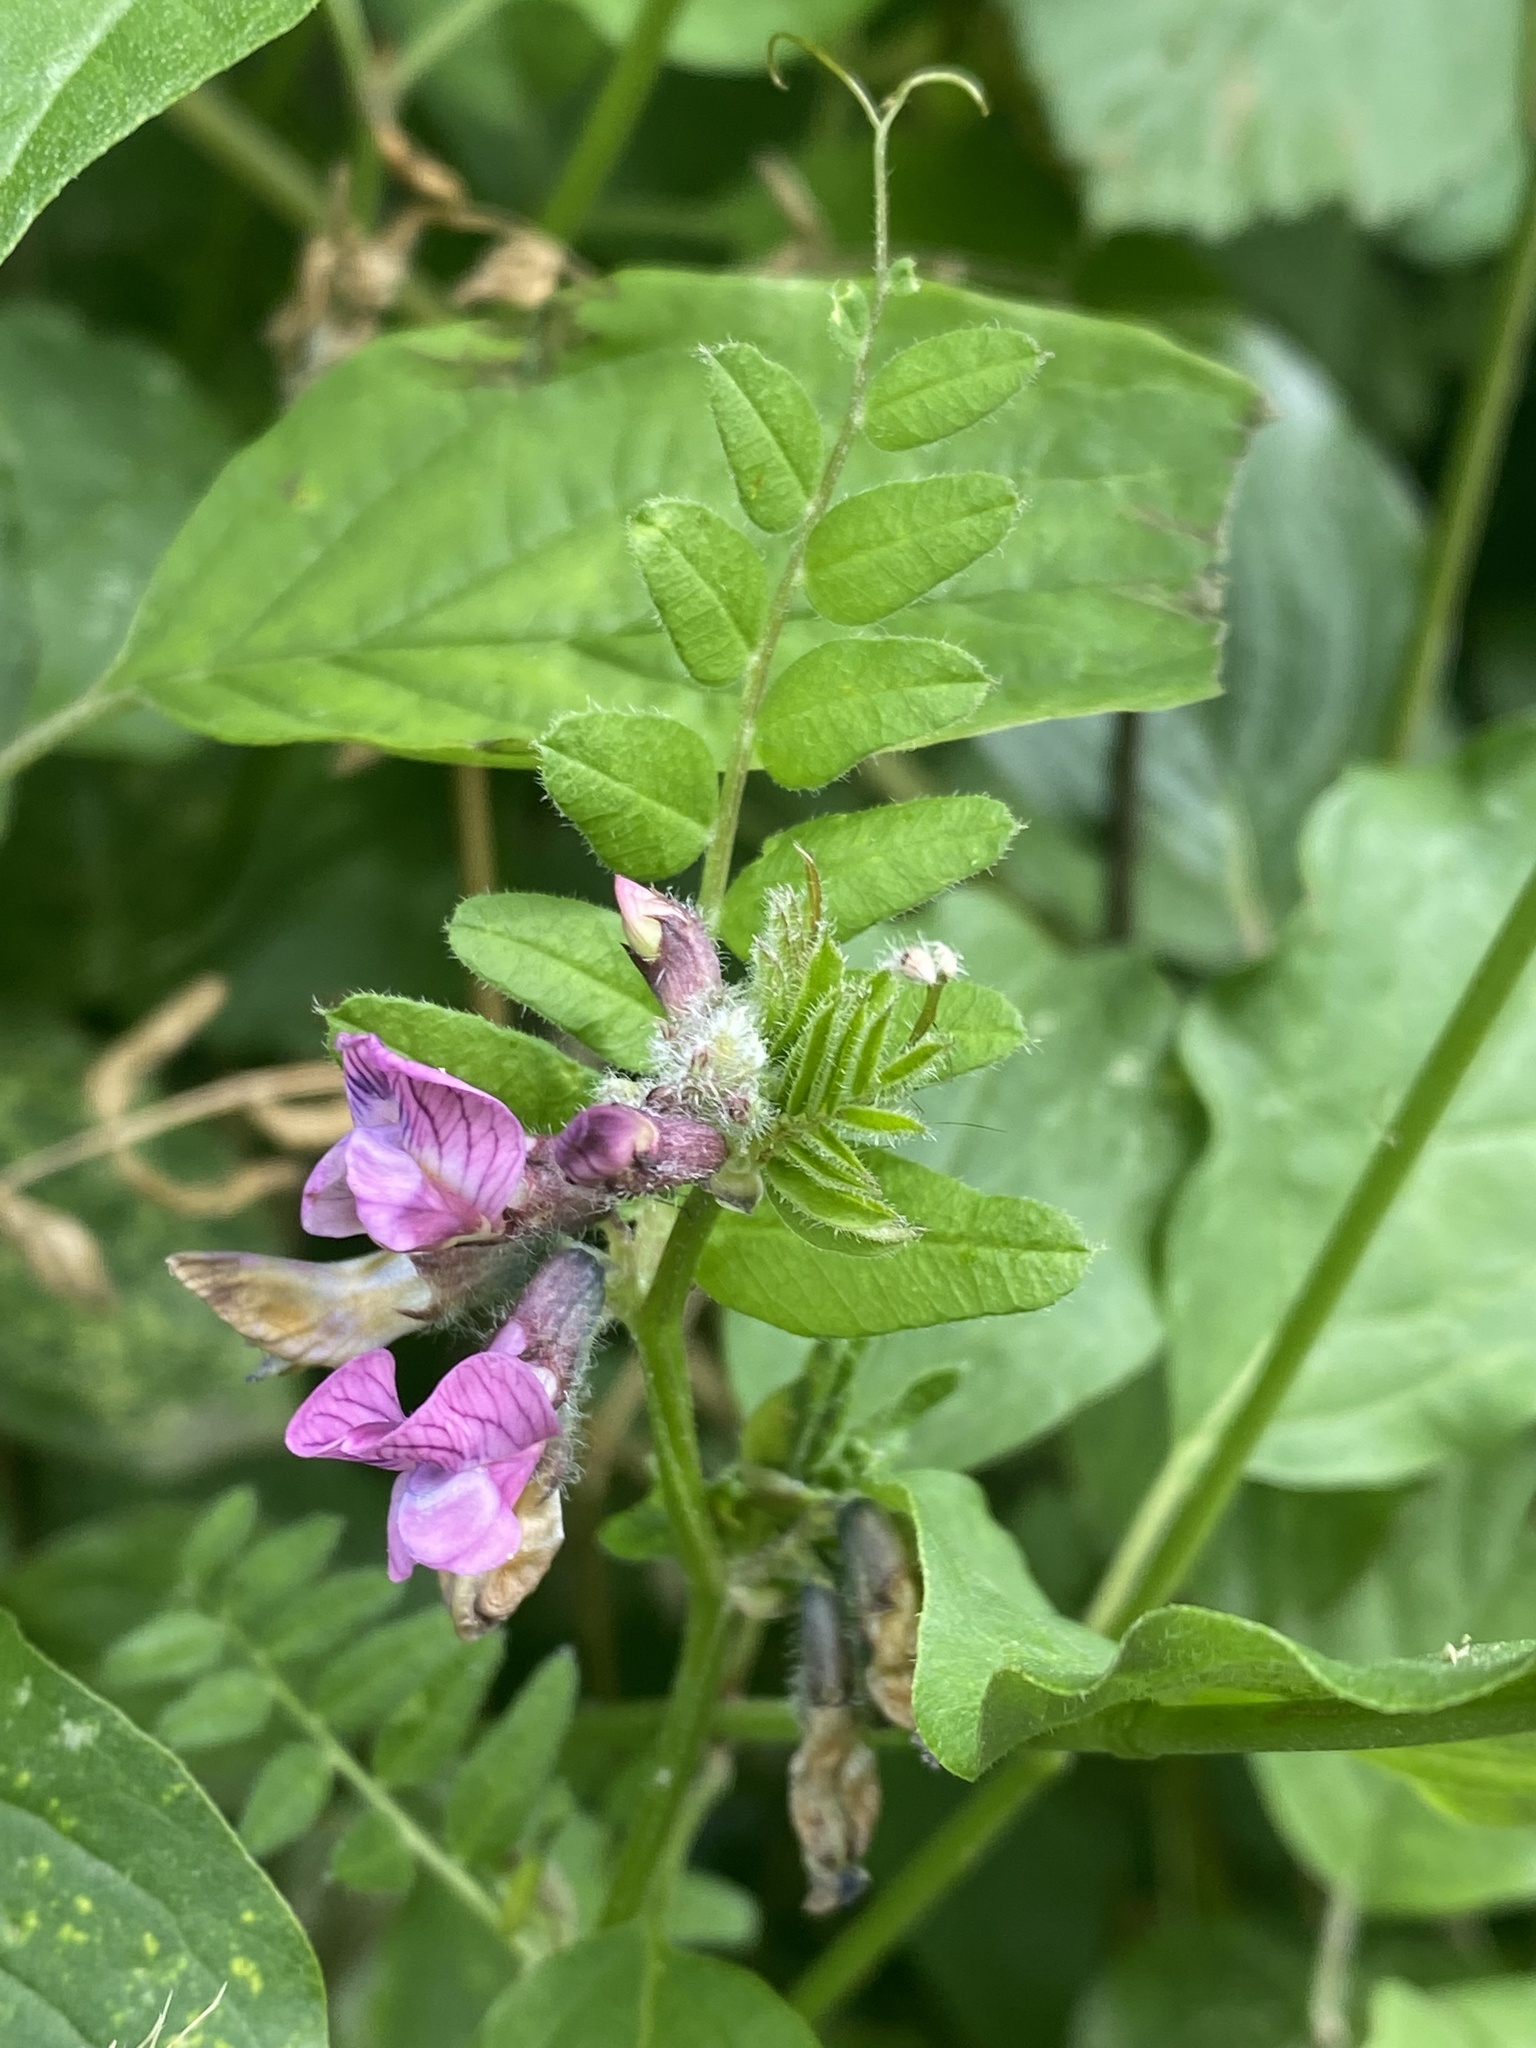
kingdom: Plantae
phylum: Tracheophyta
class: Magnoliopsida
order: Fabales
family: Fabaceae
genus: Vicia
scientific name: Vicia sepium
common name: Bush vetch
